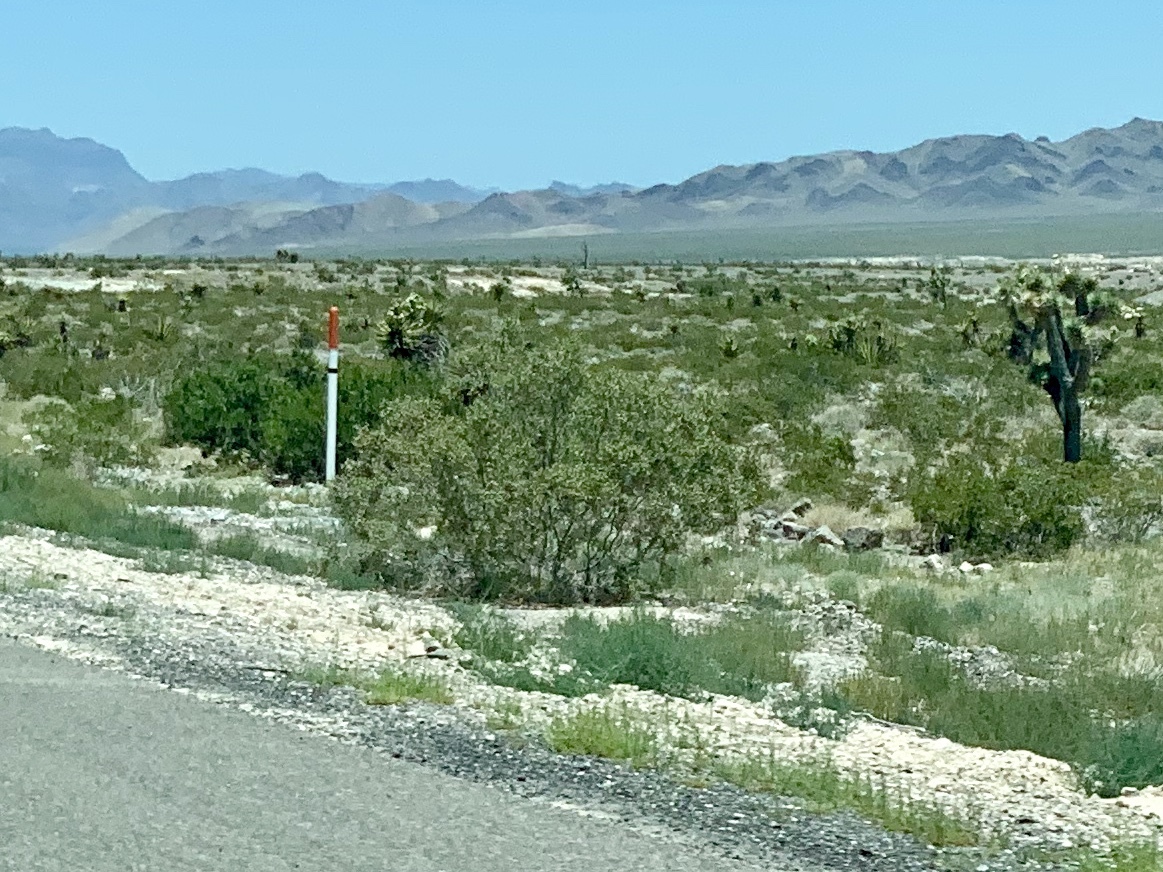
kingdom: Plantae
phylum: Tracheophyta
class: Magnoliopsida
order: Zygophyllales
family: Zygophyllaceae
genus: Larrea
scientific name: Larrea tridentata
